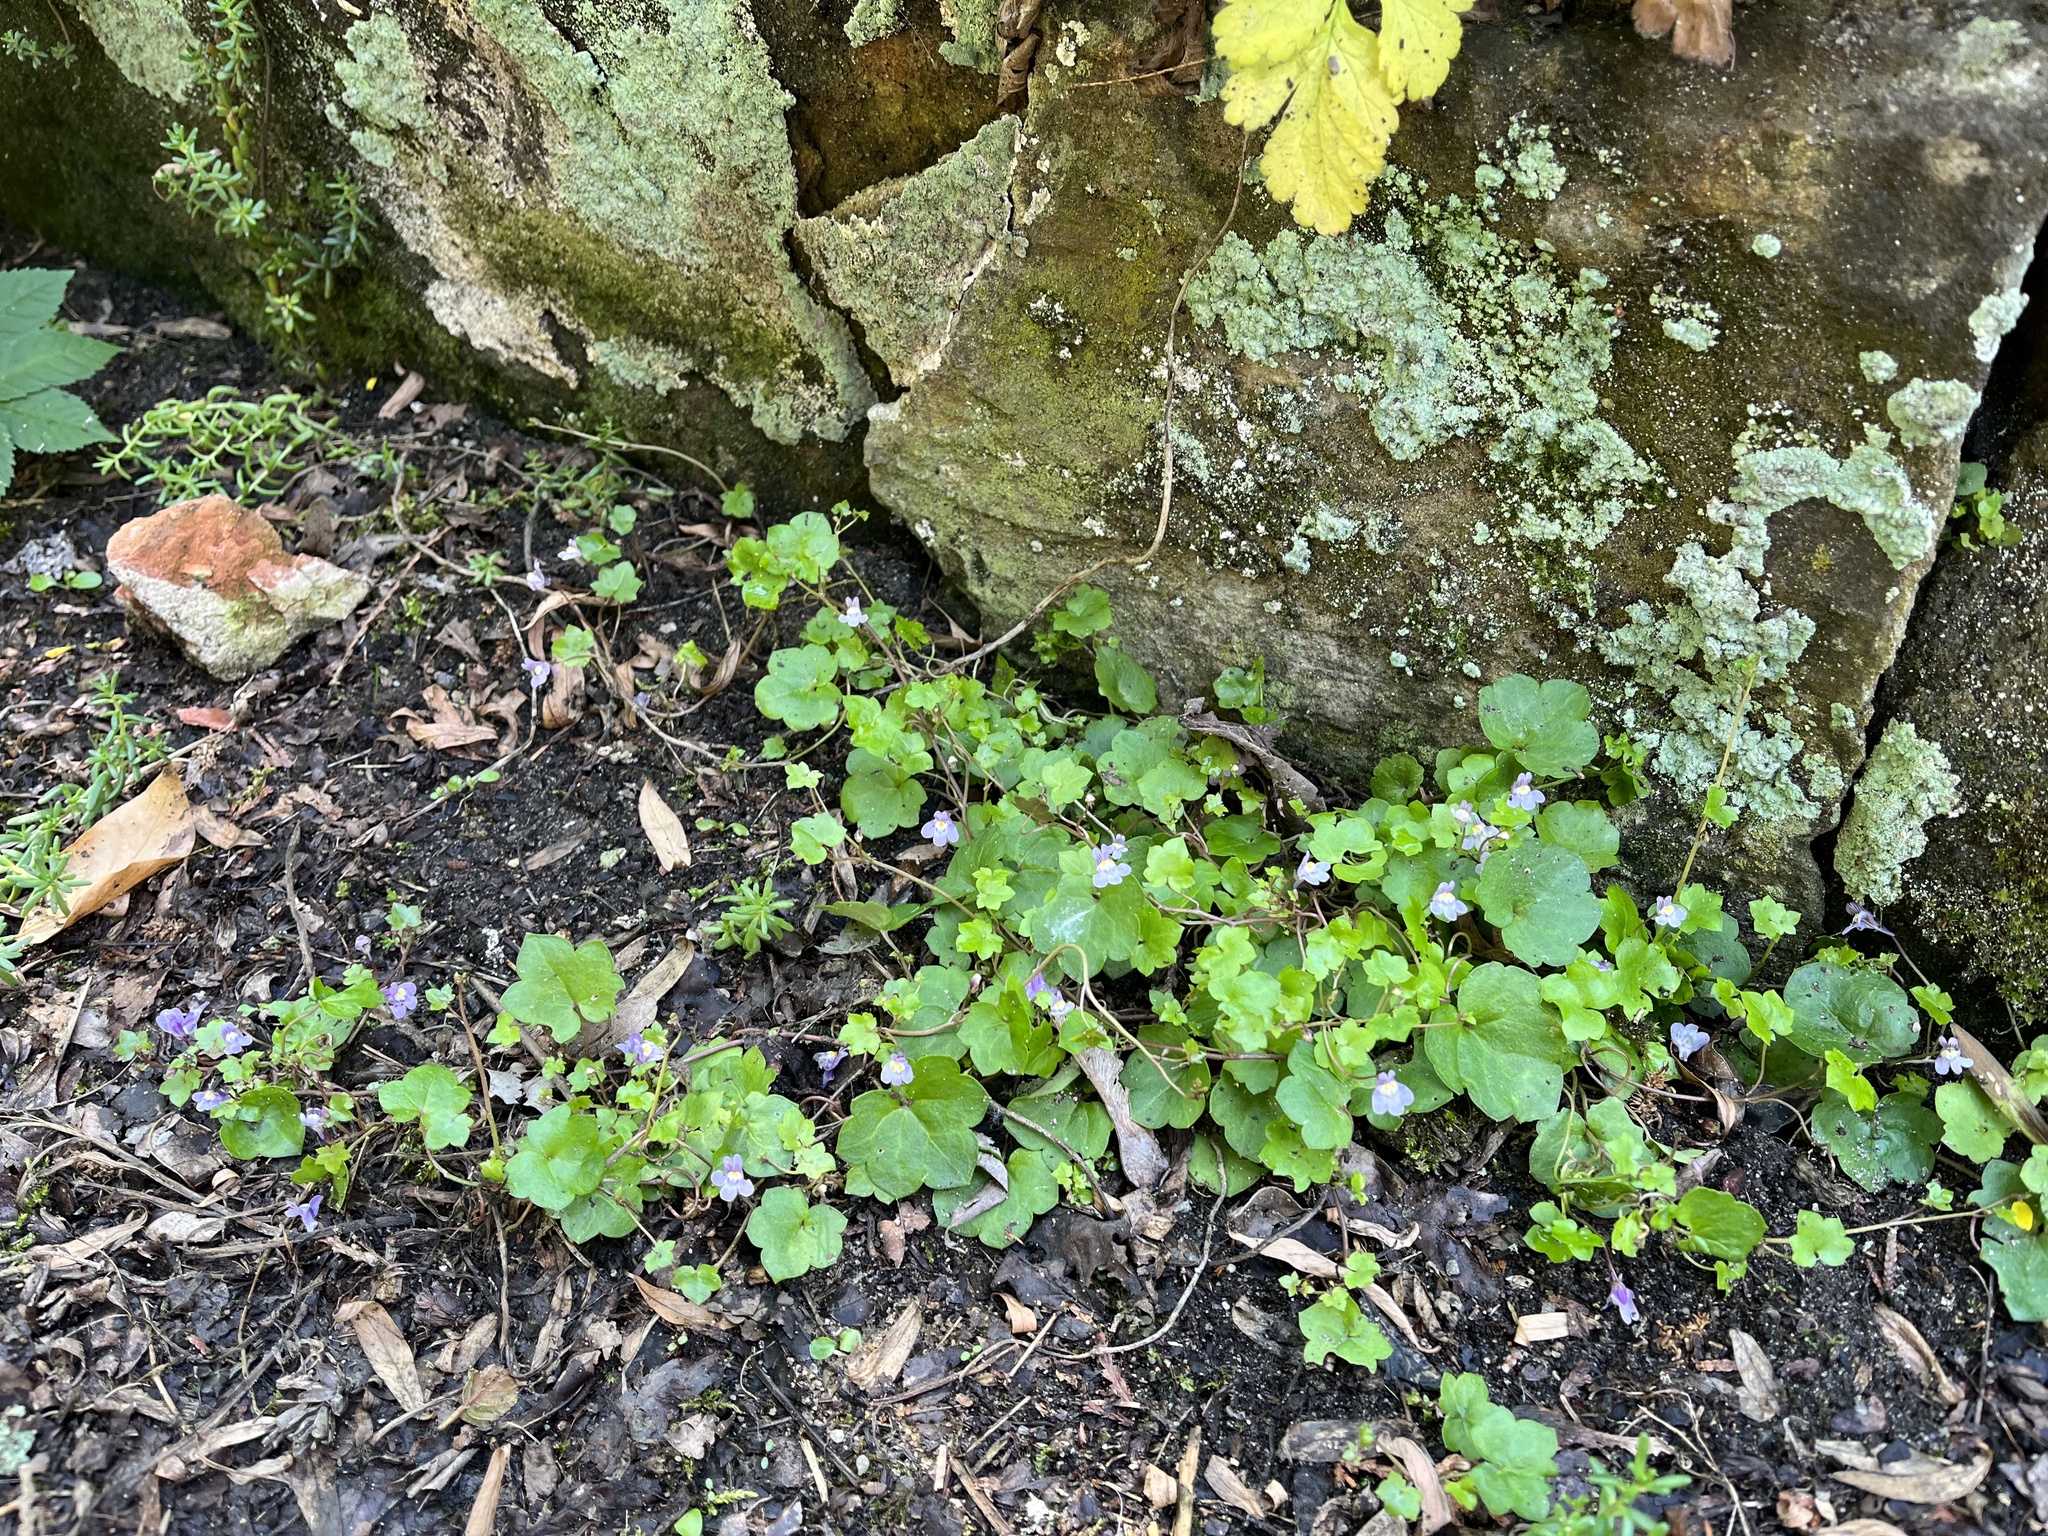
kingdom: Plantae
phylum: Tracheophyta
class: Magnoliopsida
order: Lamiales
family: Plantaginaceae
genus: Cymbalaria
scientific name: Cymbalaria muralis
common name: Ivy-leaved toadflax
